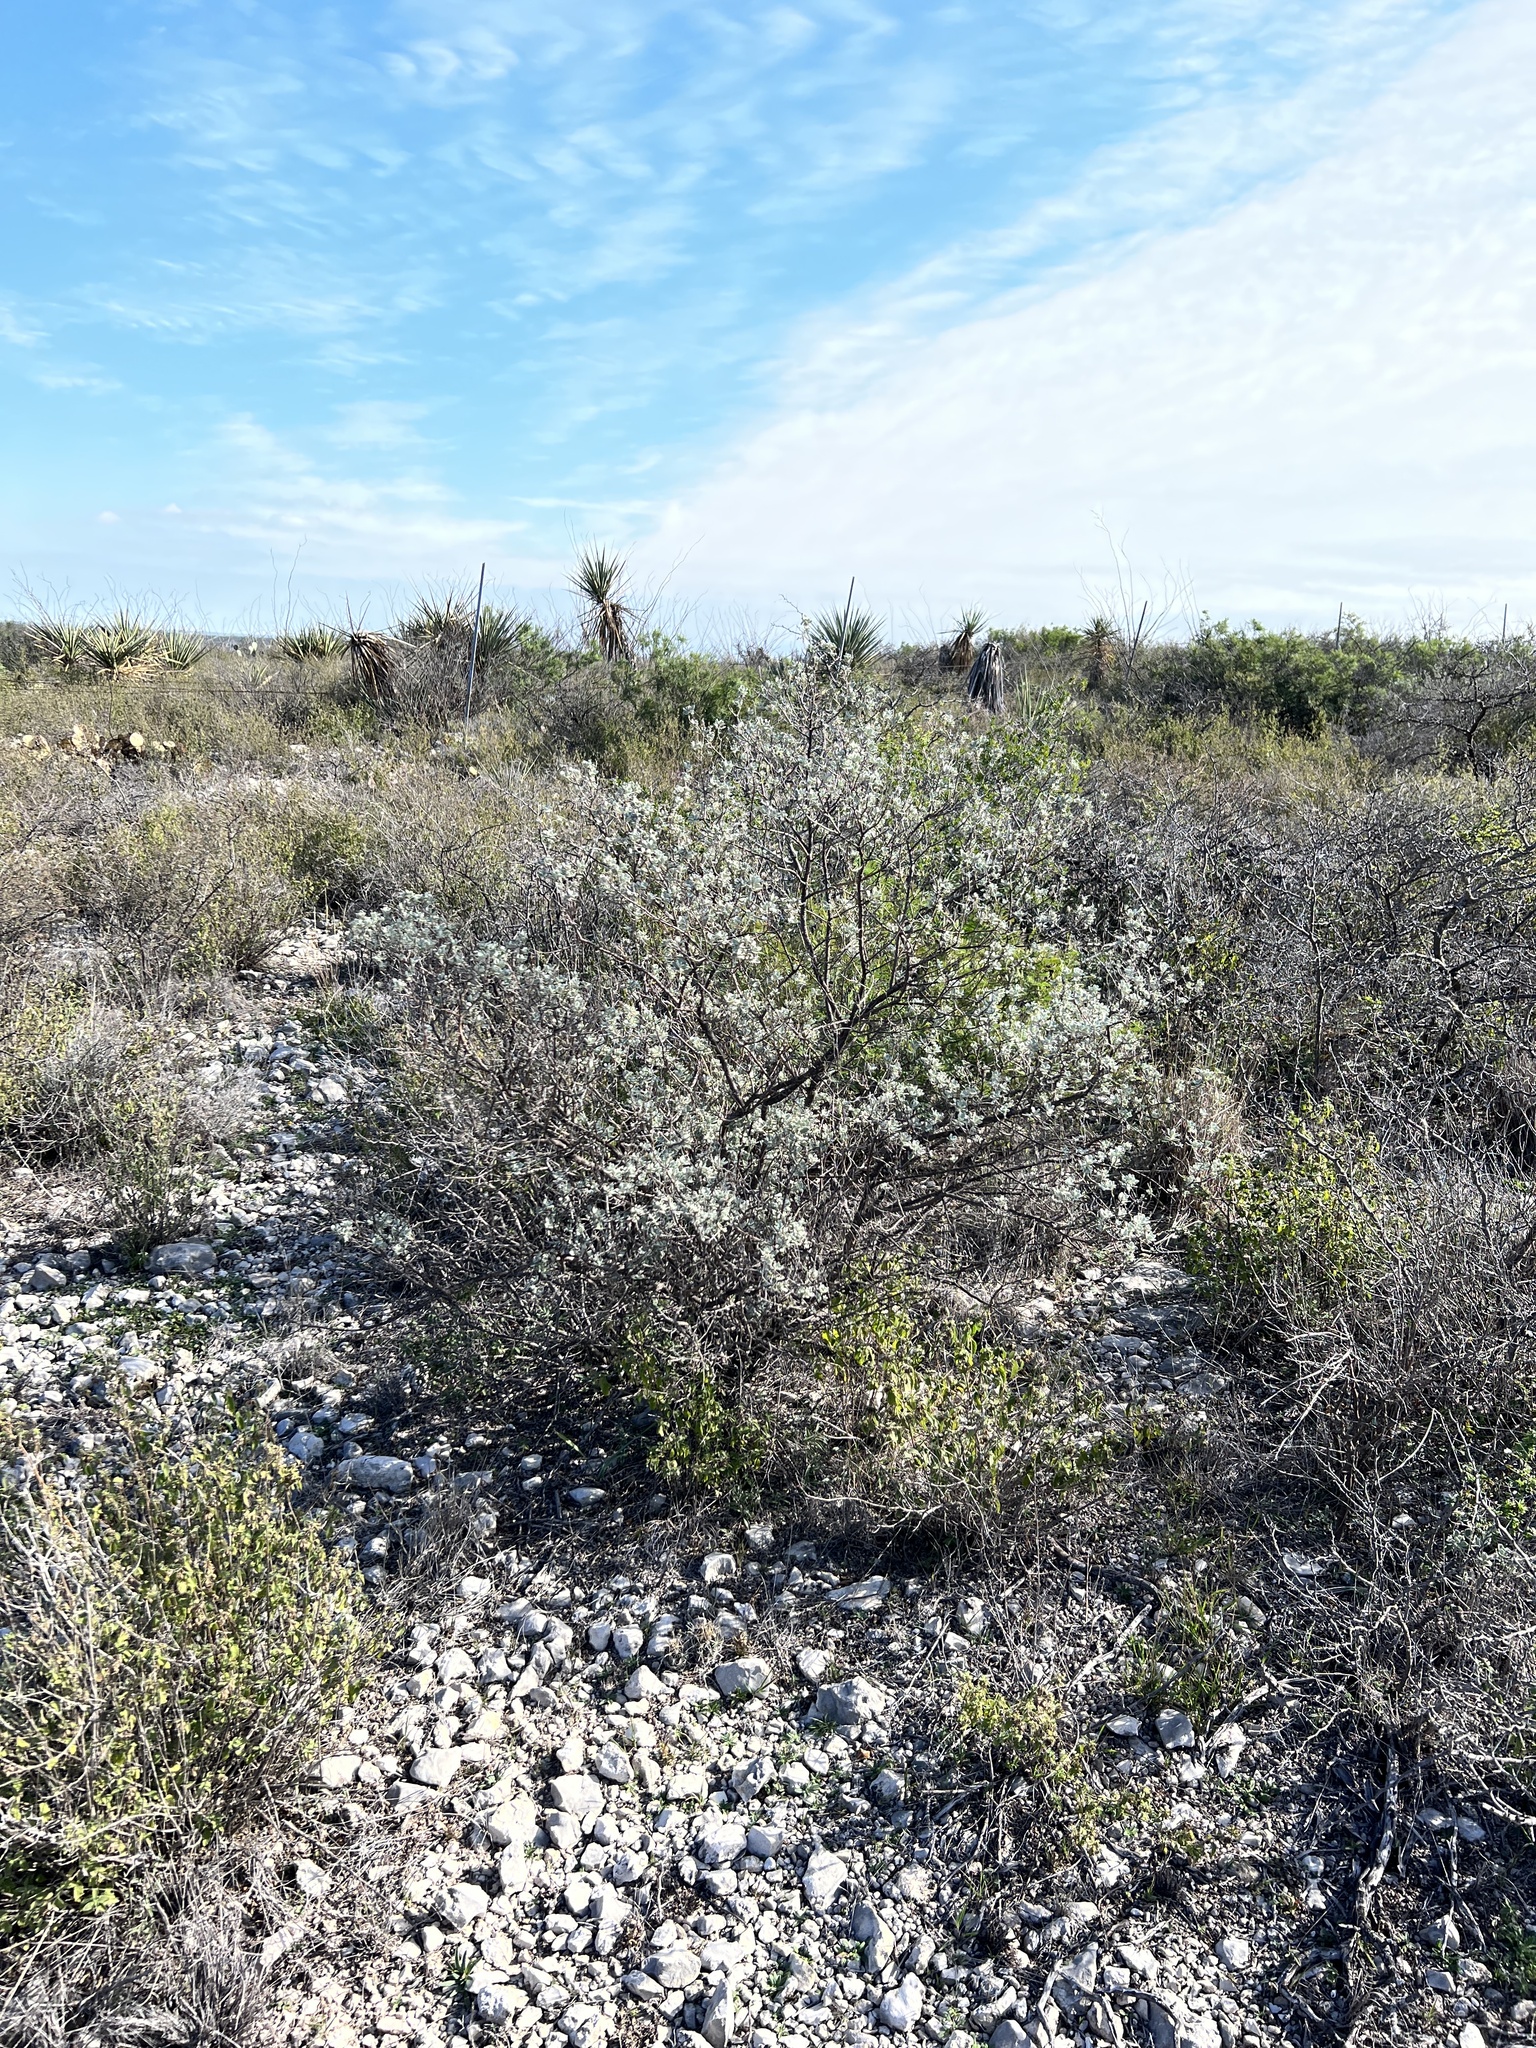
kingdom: Plantae
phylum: Tracheophyta
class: Magnoliopsida
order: Lamiales
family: Scrophulariaceae
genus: Leucophyllum
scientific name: Leucophyllum frutescens
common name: Texas silverleaf
